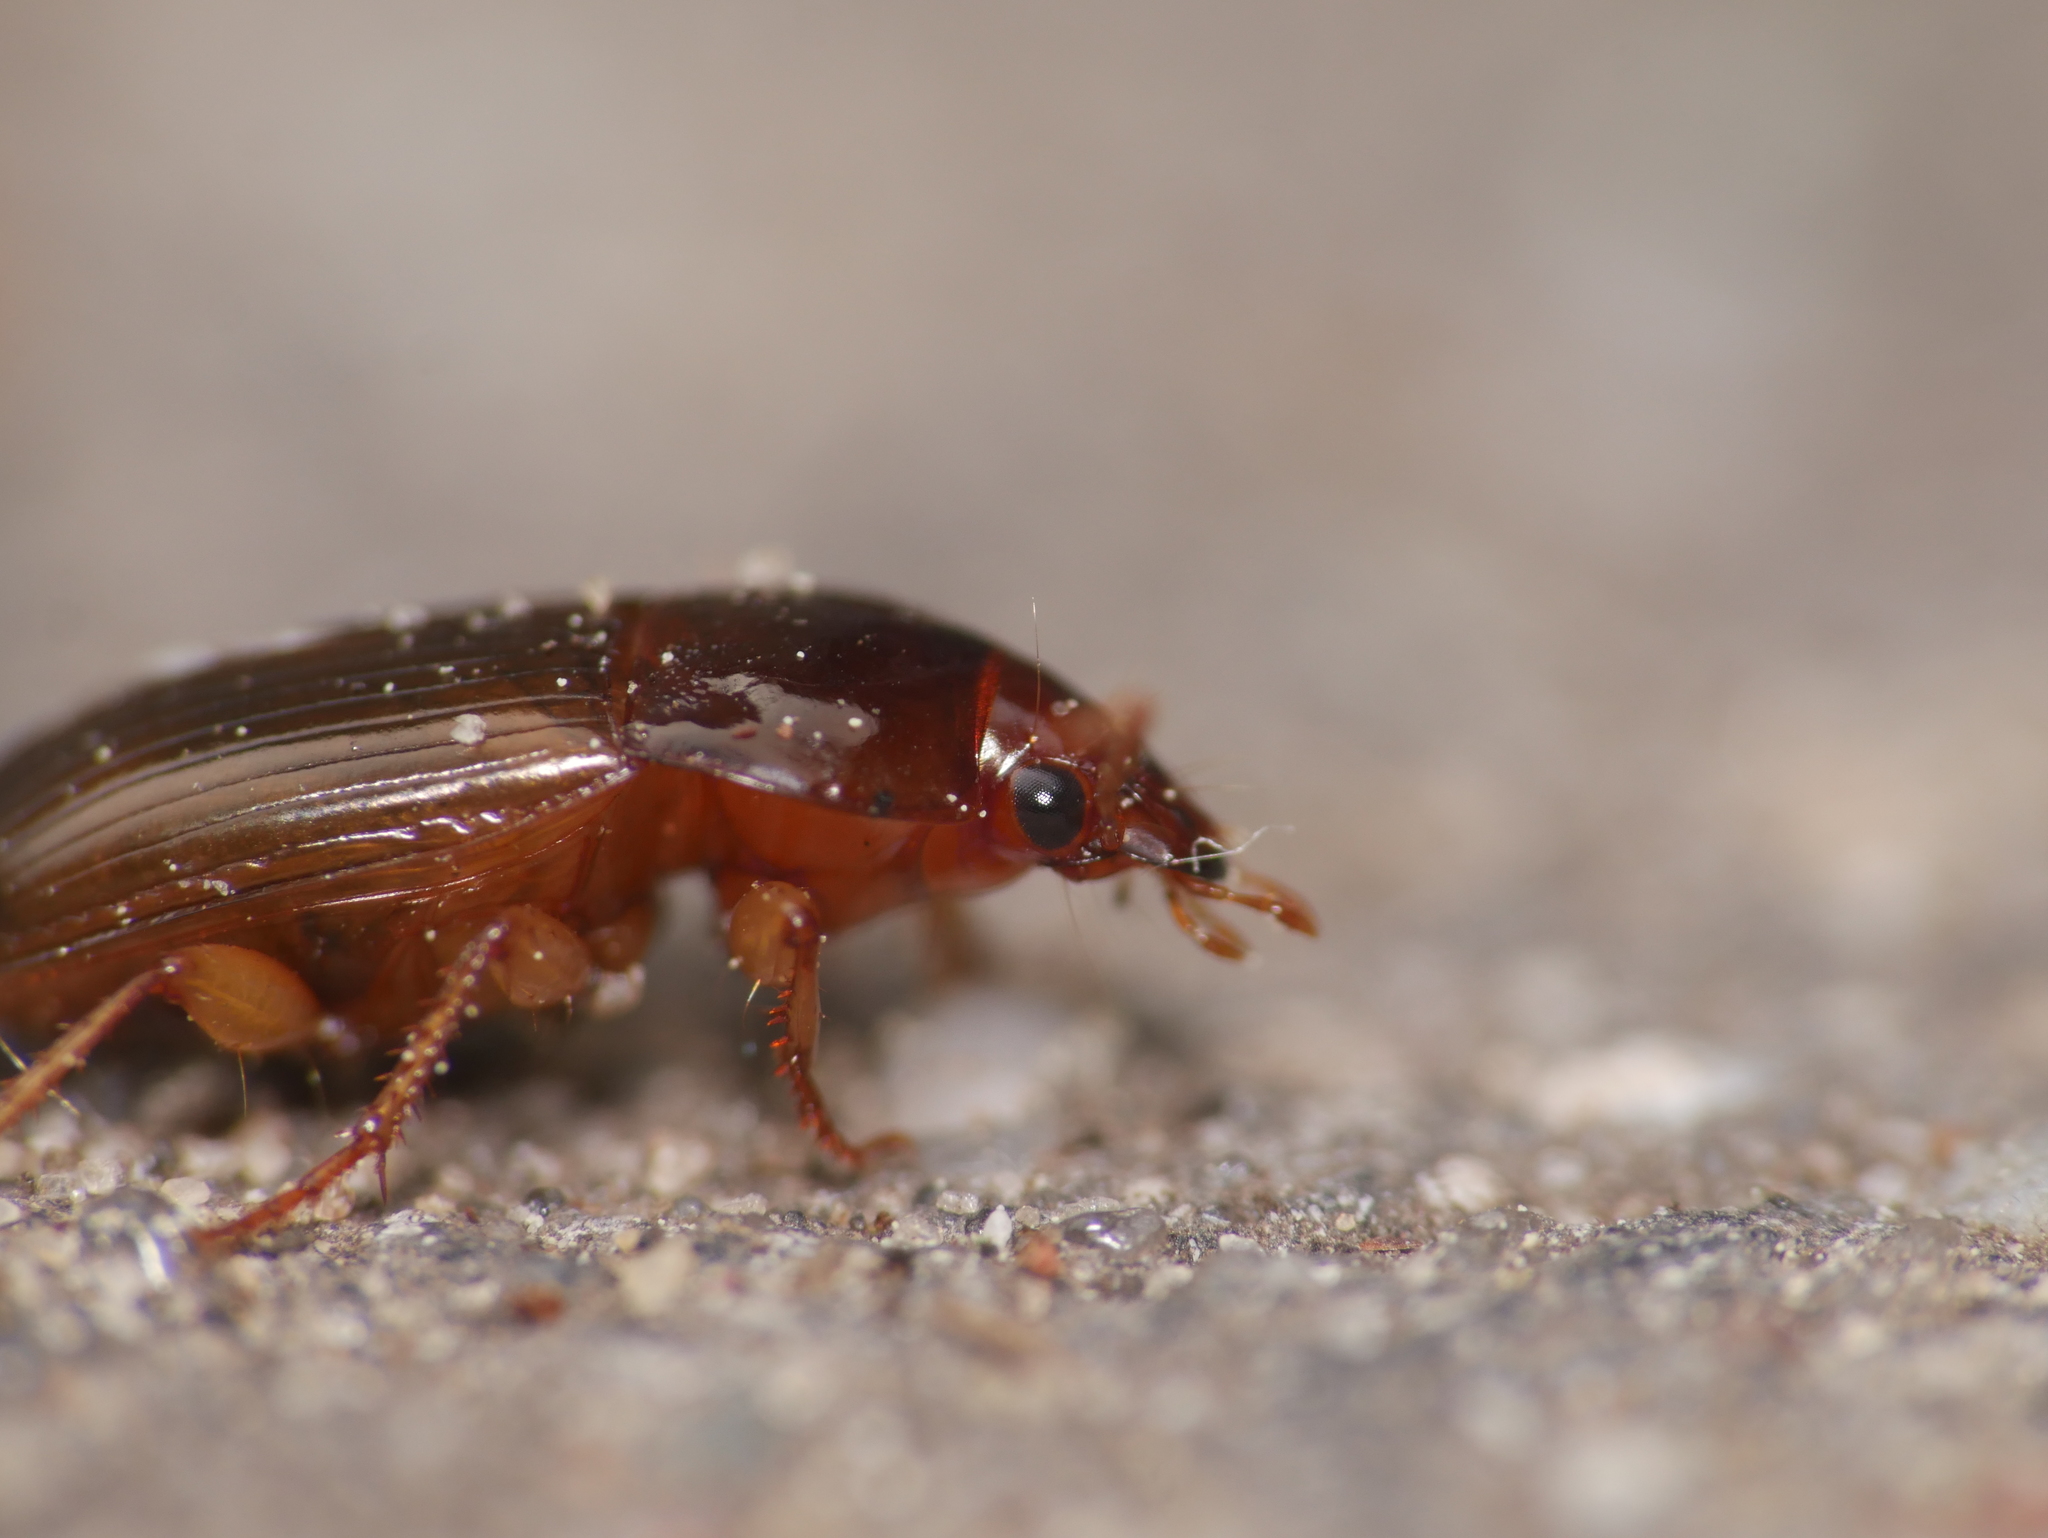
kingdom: Animalia
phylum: Arthropoda
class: Insecta
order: Coleoptera
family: Carabidae
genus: Amara
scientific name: Amara praetermissa
